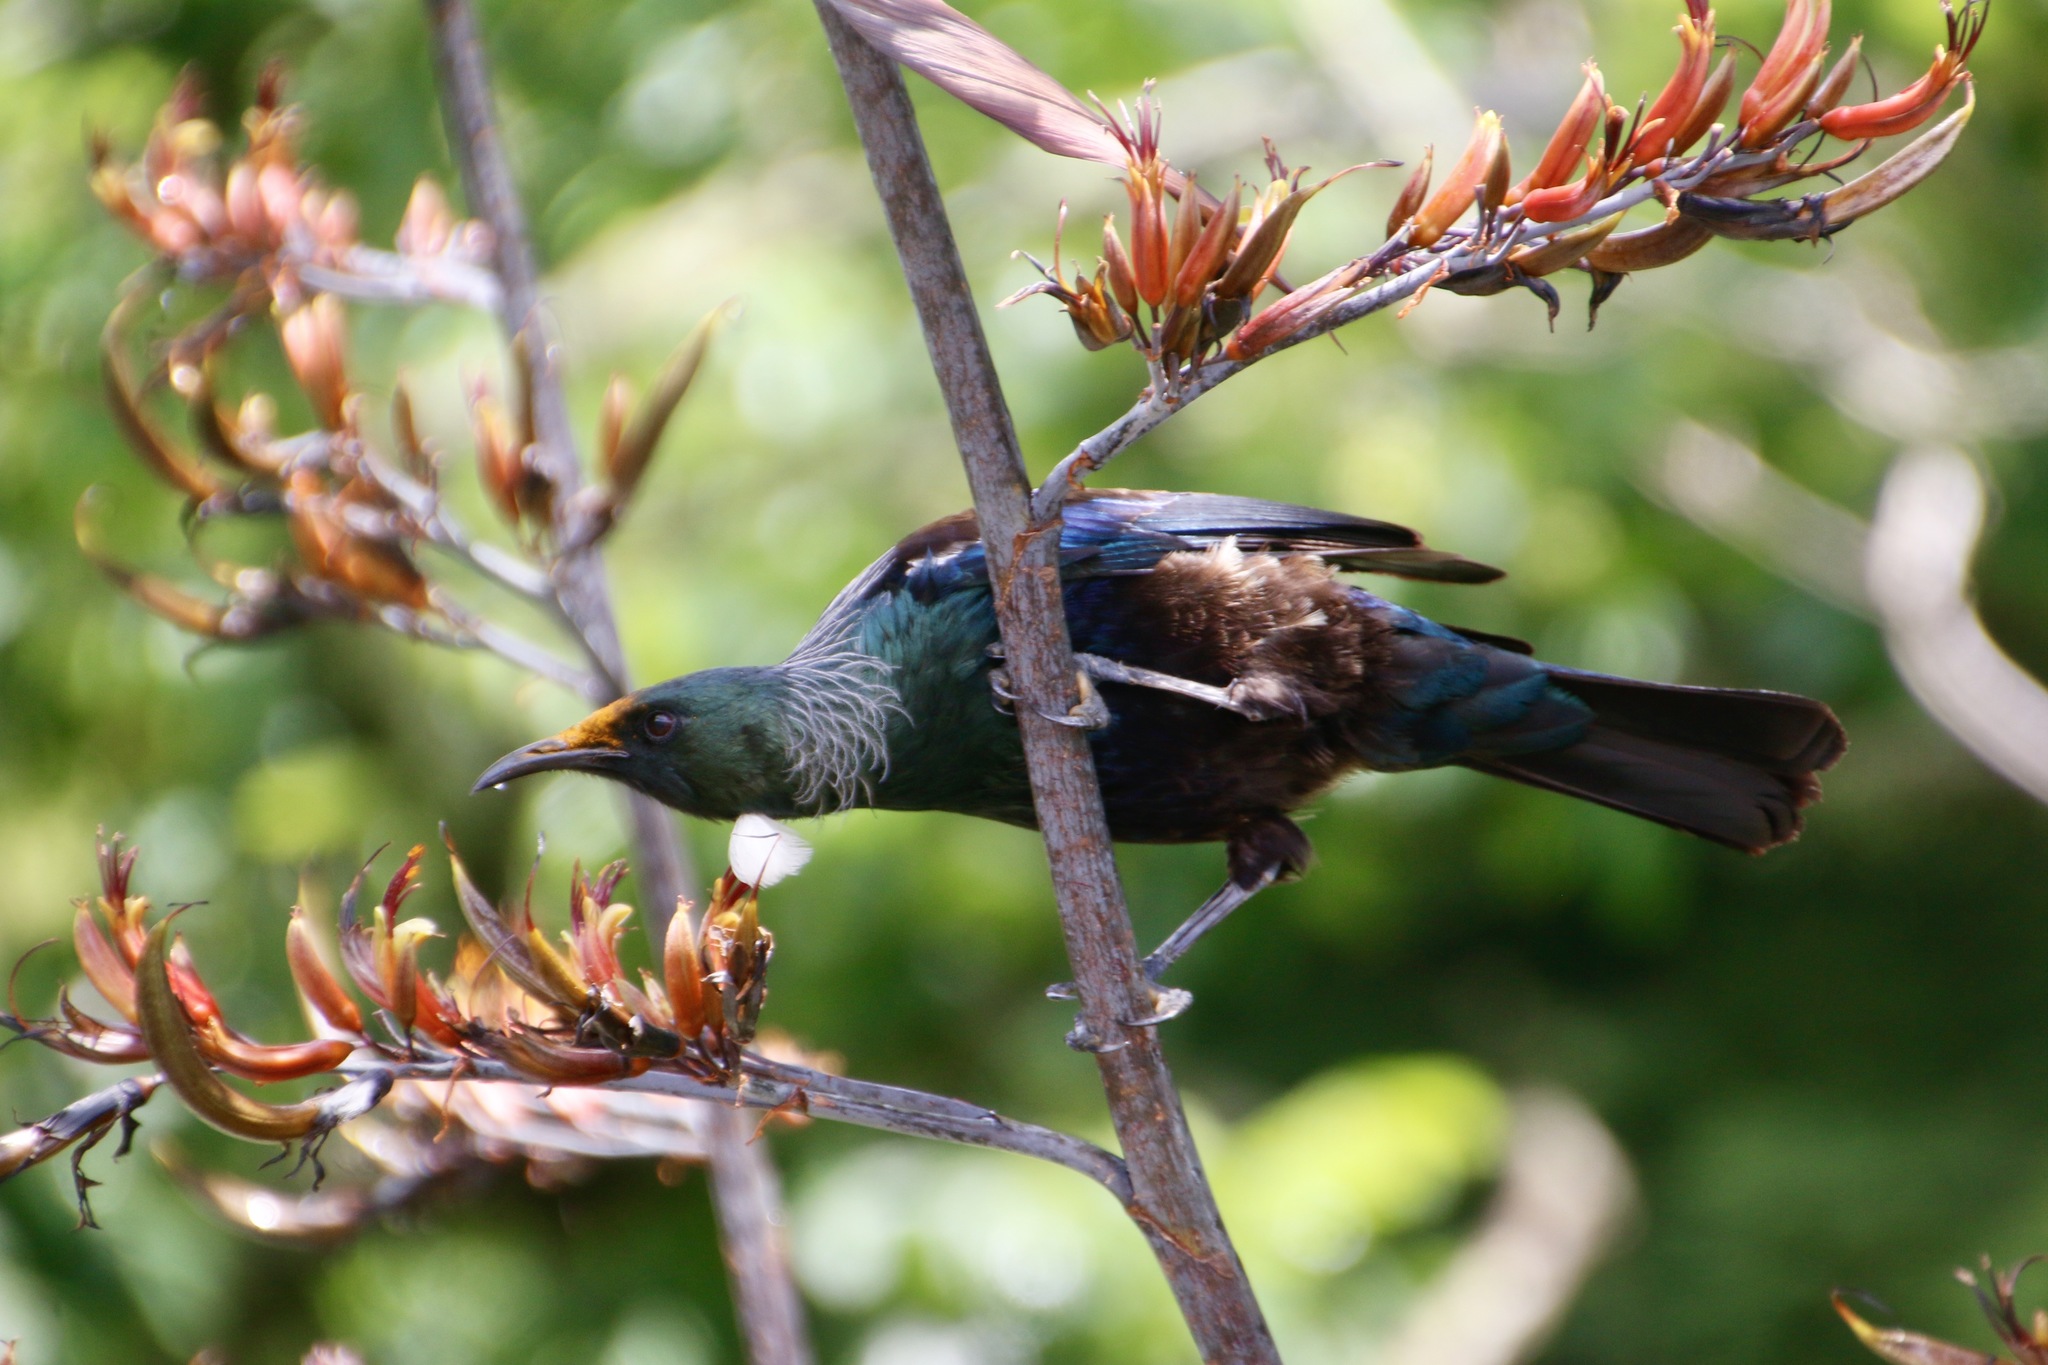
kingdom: Animalia
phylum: Chordata
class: Aves
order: Passeriformes
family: Meliphagidae
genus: Prosthemadera
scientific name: Prosthemadera novaeseelandiae
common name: Tui
